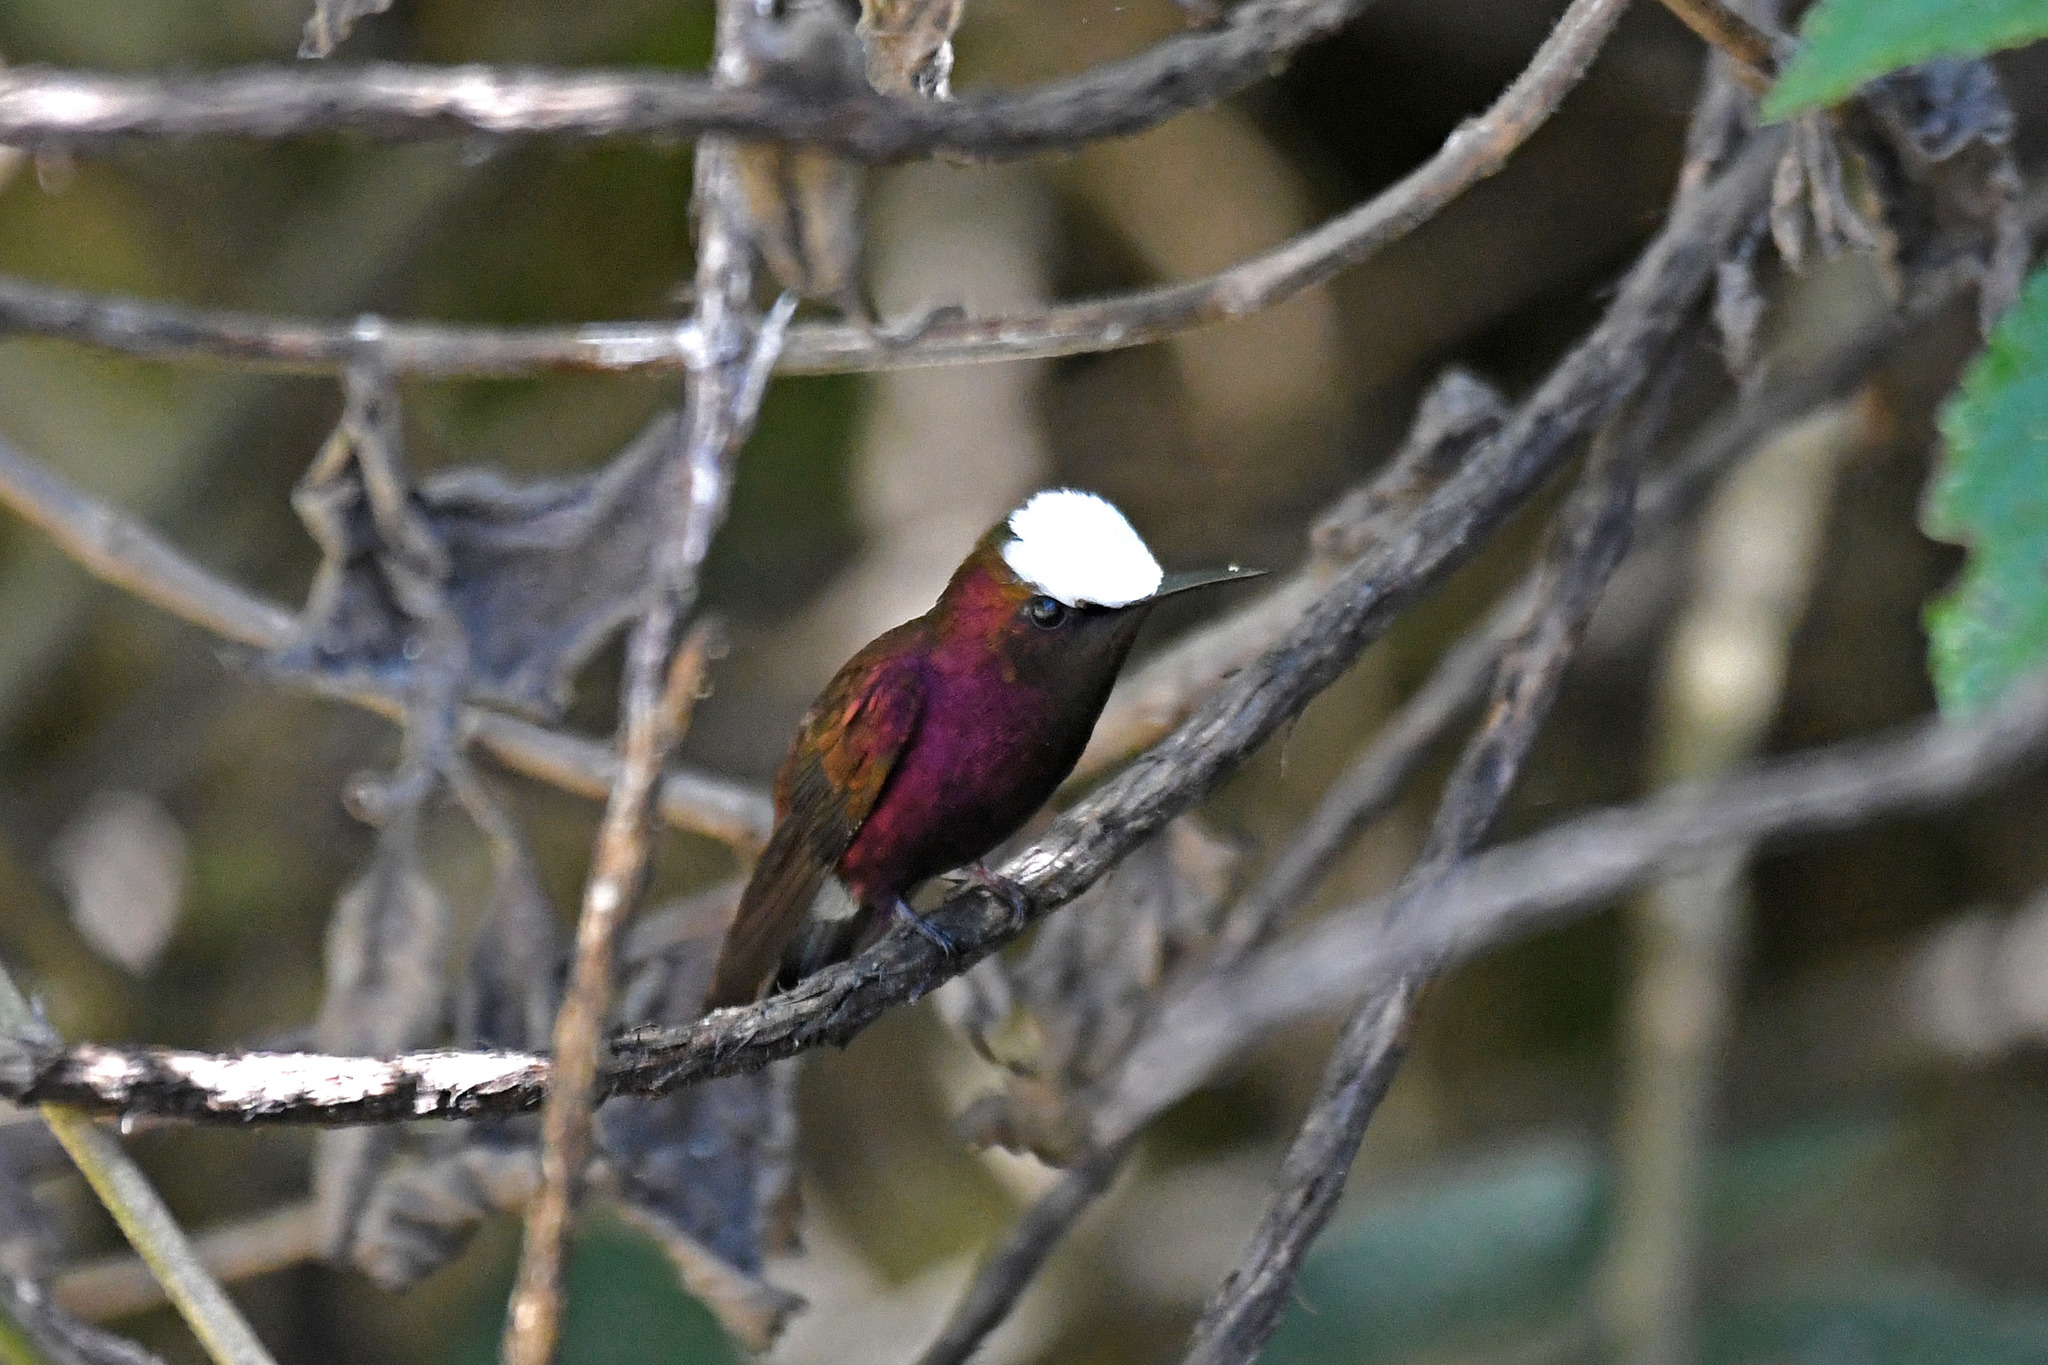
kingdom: Animalia
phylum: Chordata
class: Aves
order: Apodiformes
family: Trochilidae
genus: Microchera
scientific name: Microchera albocoronata
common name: Snowcap
